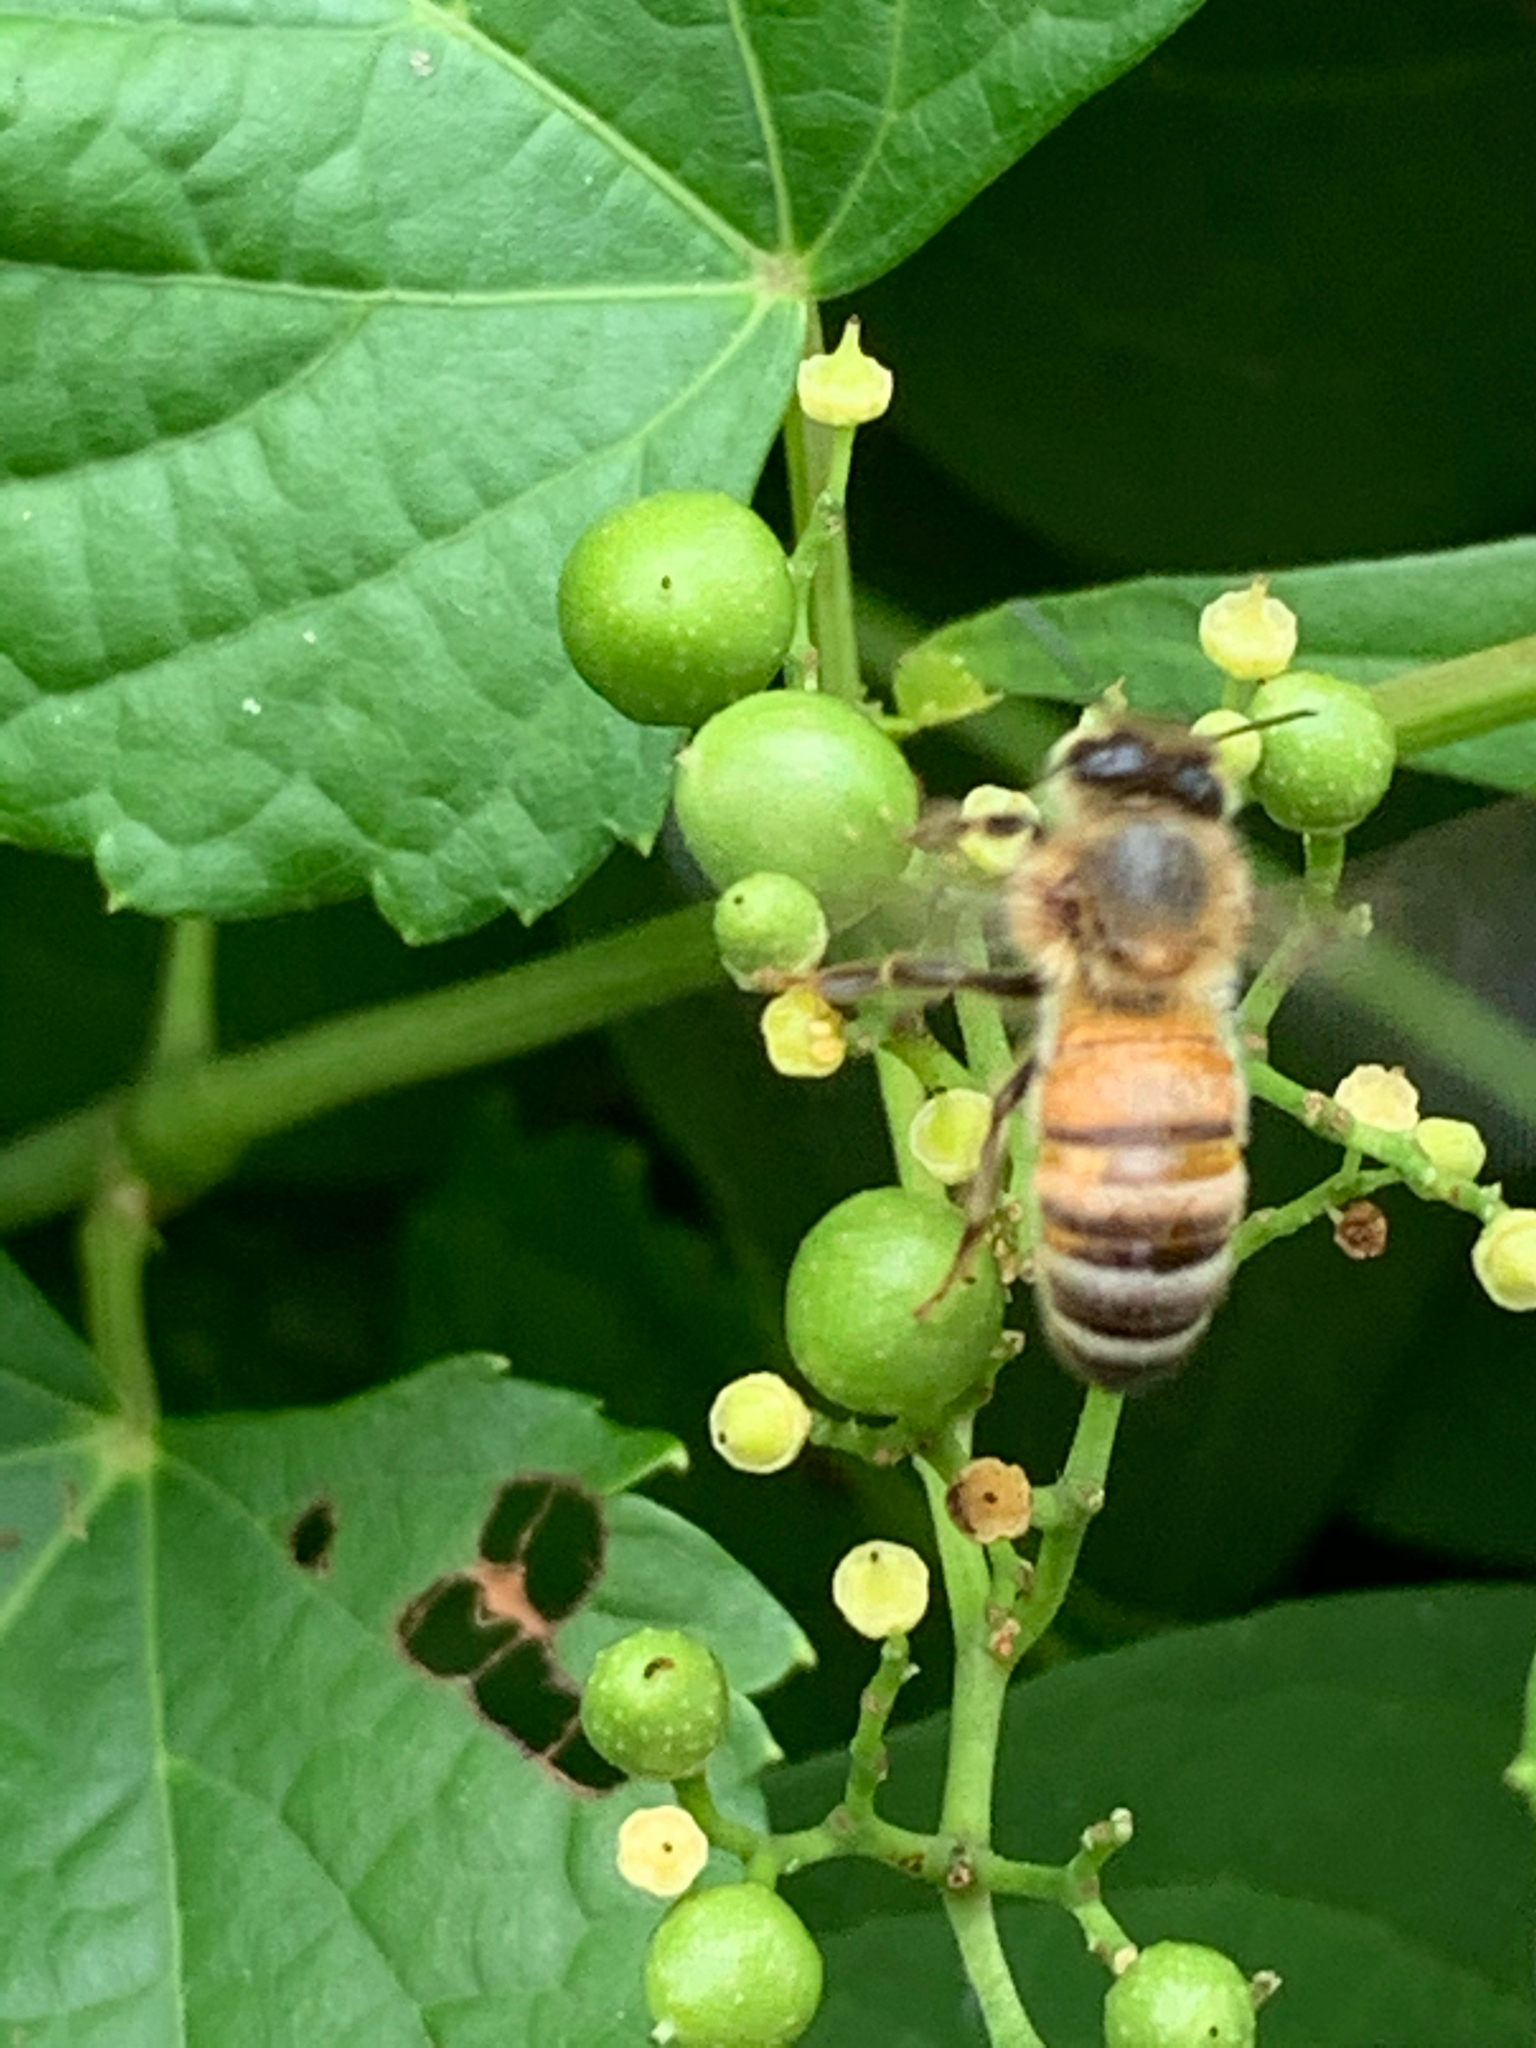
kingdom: Animalia
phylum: Arthropoda
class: Insecta
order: Hymenoptera
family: Apidae
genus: Apis
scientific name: Apis mellifera
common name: Honey bee
